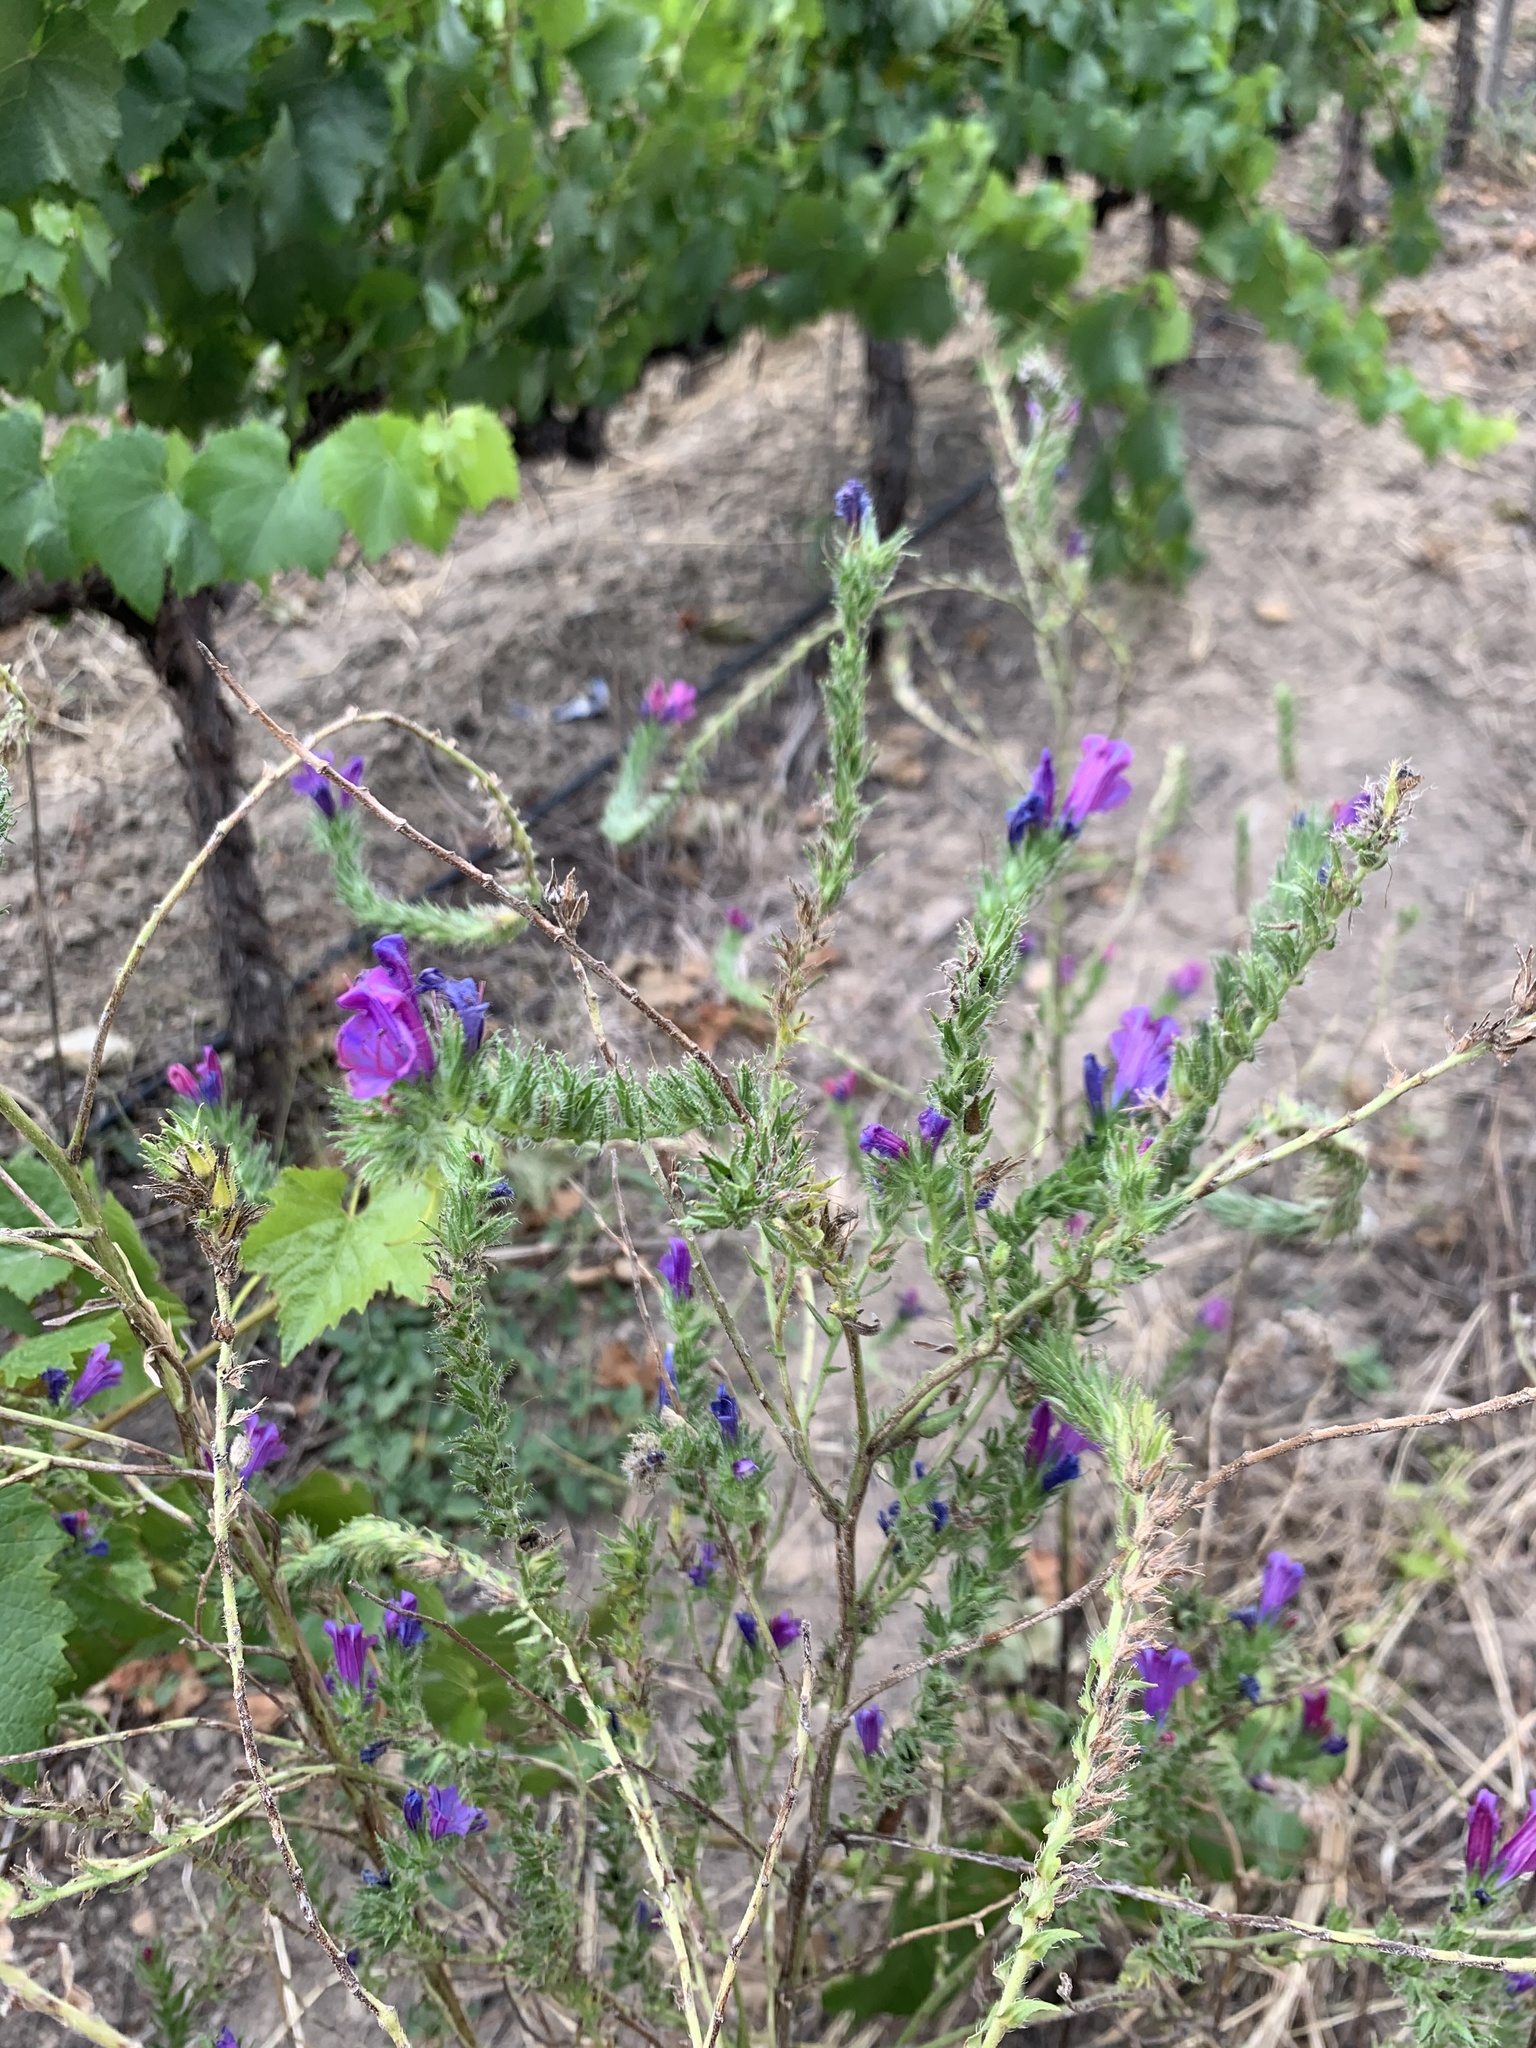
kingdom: Plantae
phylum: Tracheophyta
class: Magnoliopsida
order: Boraginales
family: Boraginaceae
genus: Echium
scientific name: Echium plantagineum
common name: Purple viper's-bugloss
